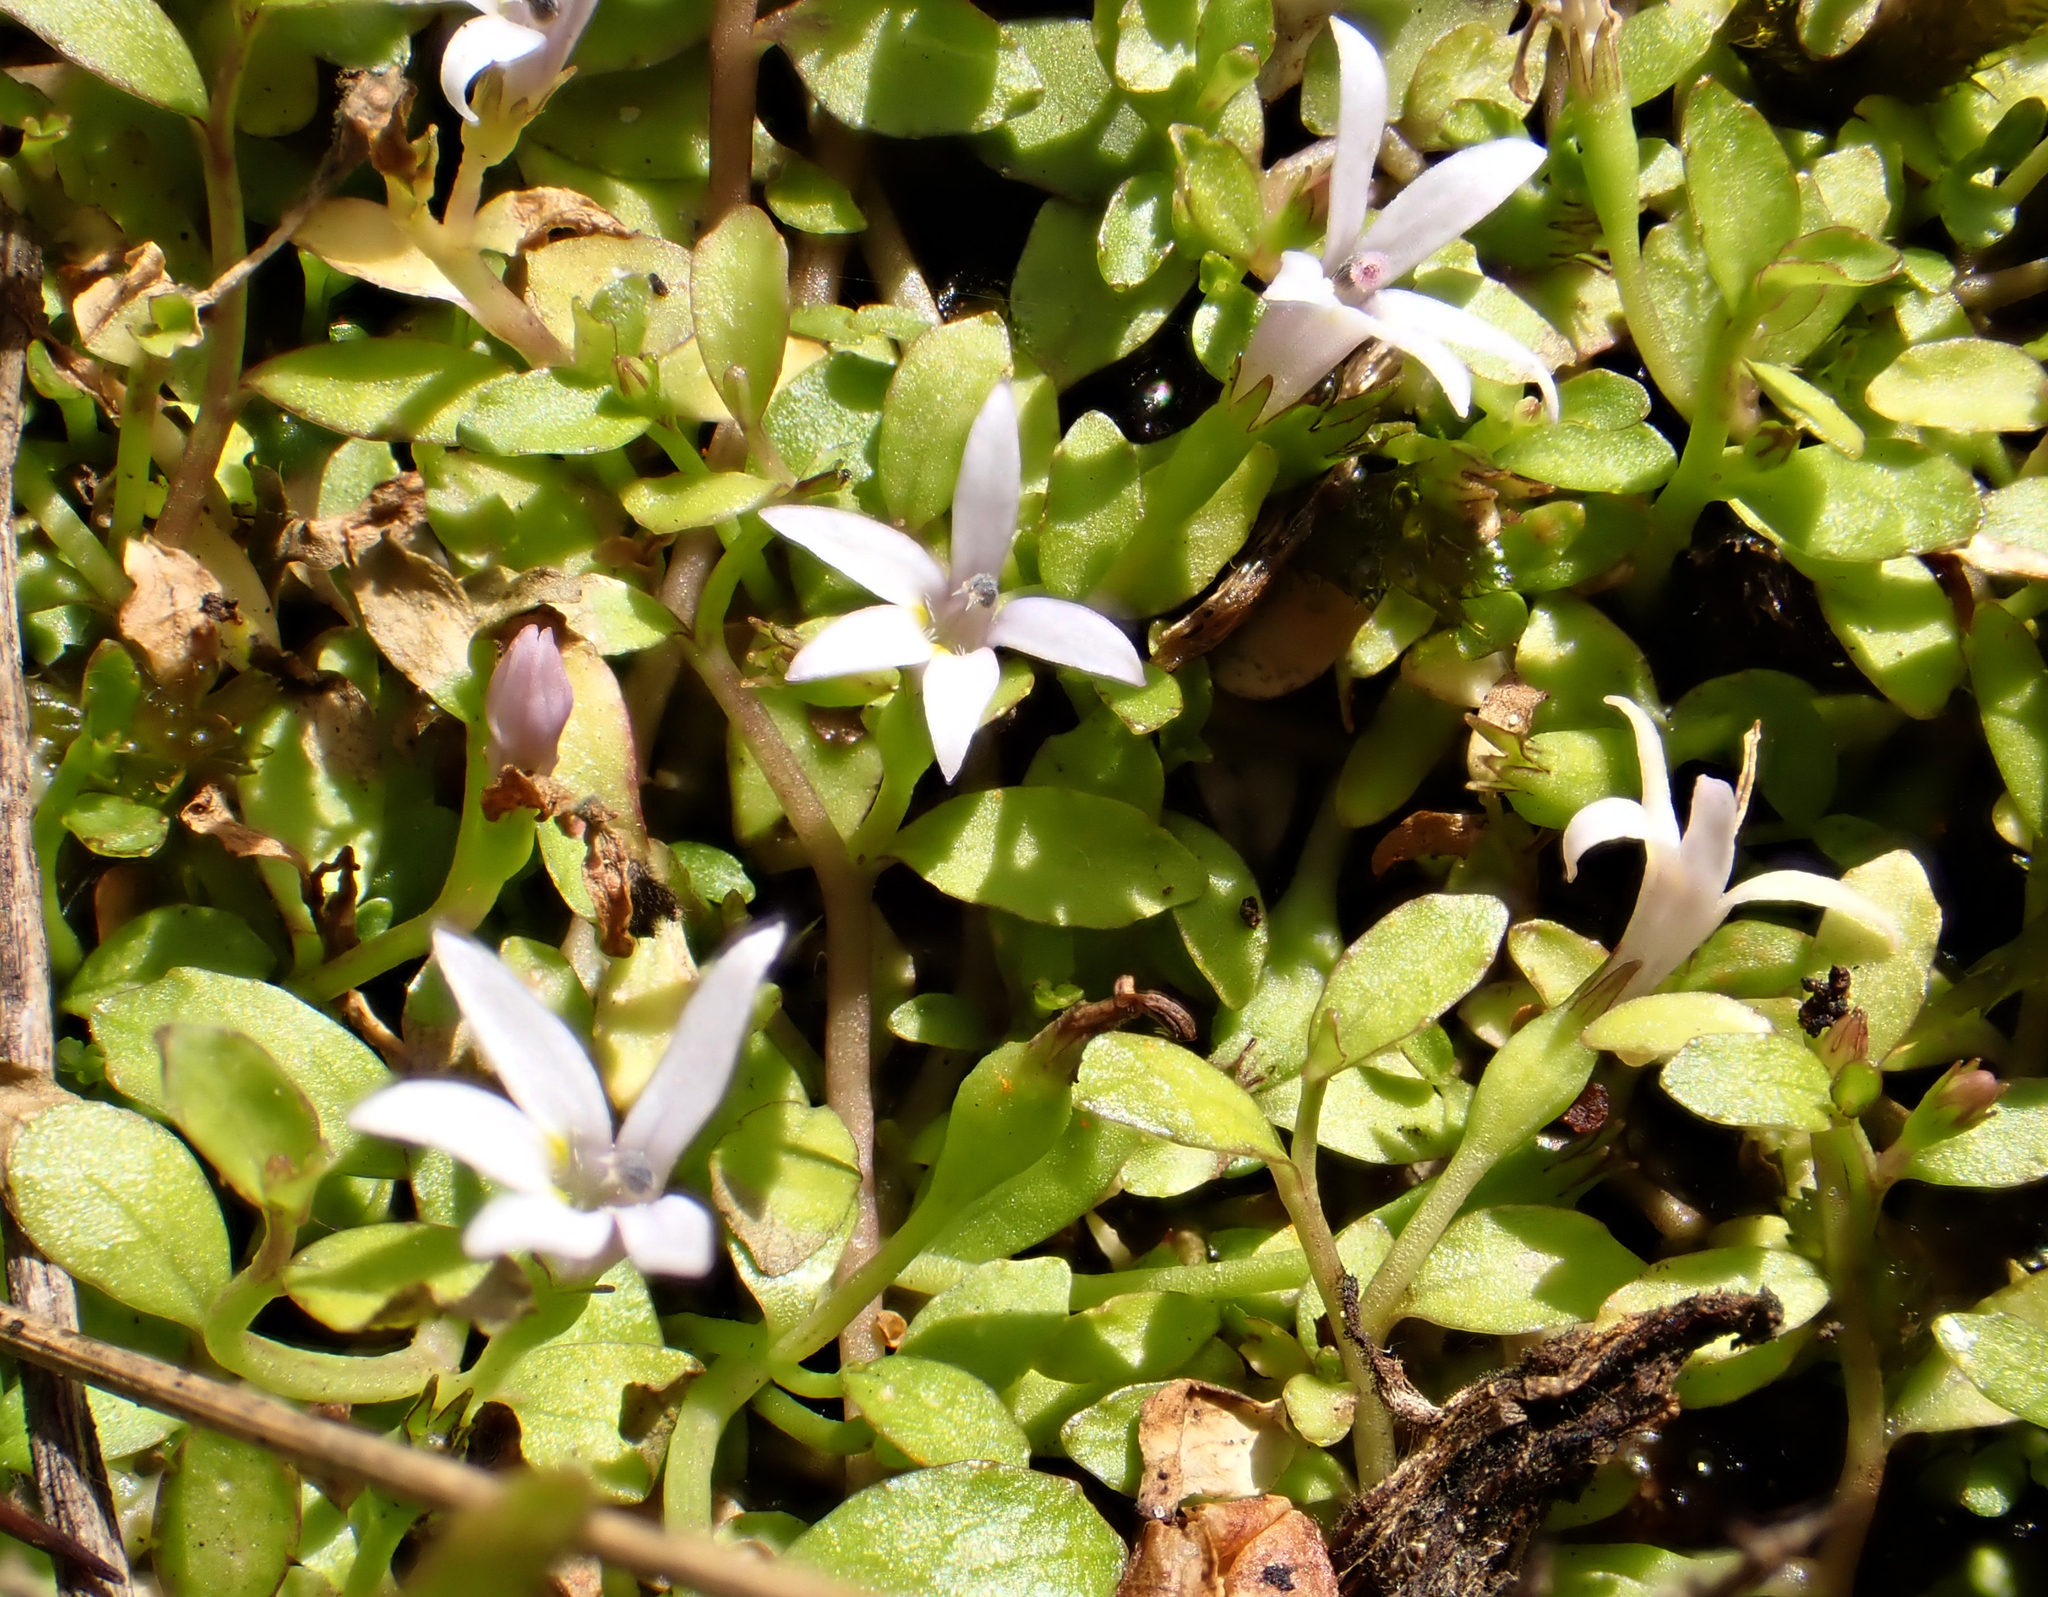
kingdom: Plantae
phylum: Tracheophyta
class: Magnoliopsida
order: Asterales
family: Campanulaceae
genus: Lobelia
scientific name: Lobelia fatiscens
